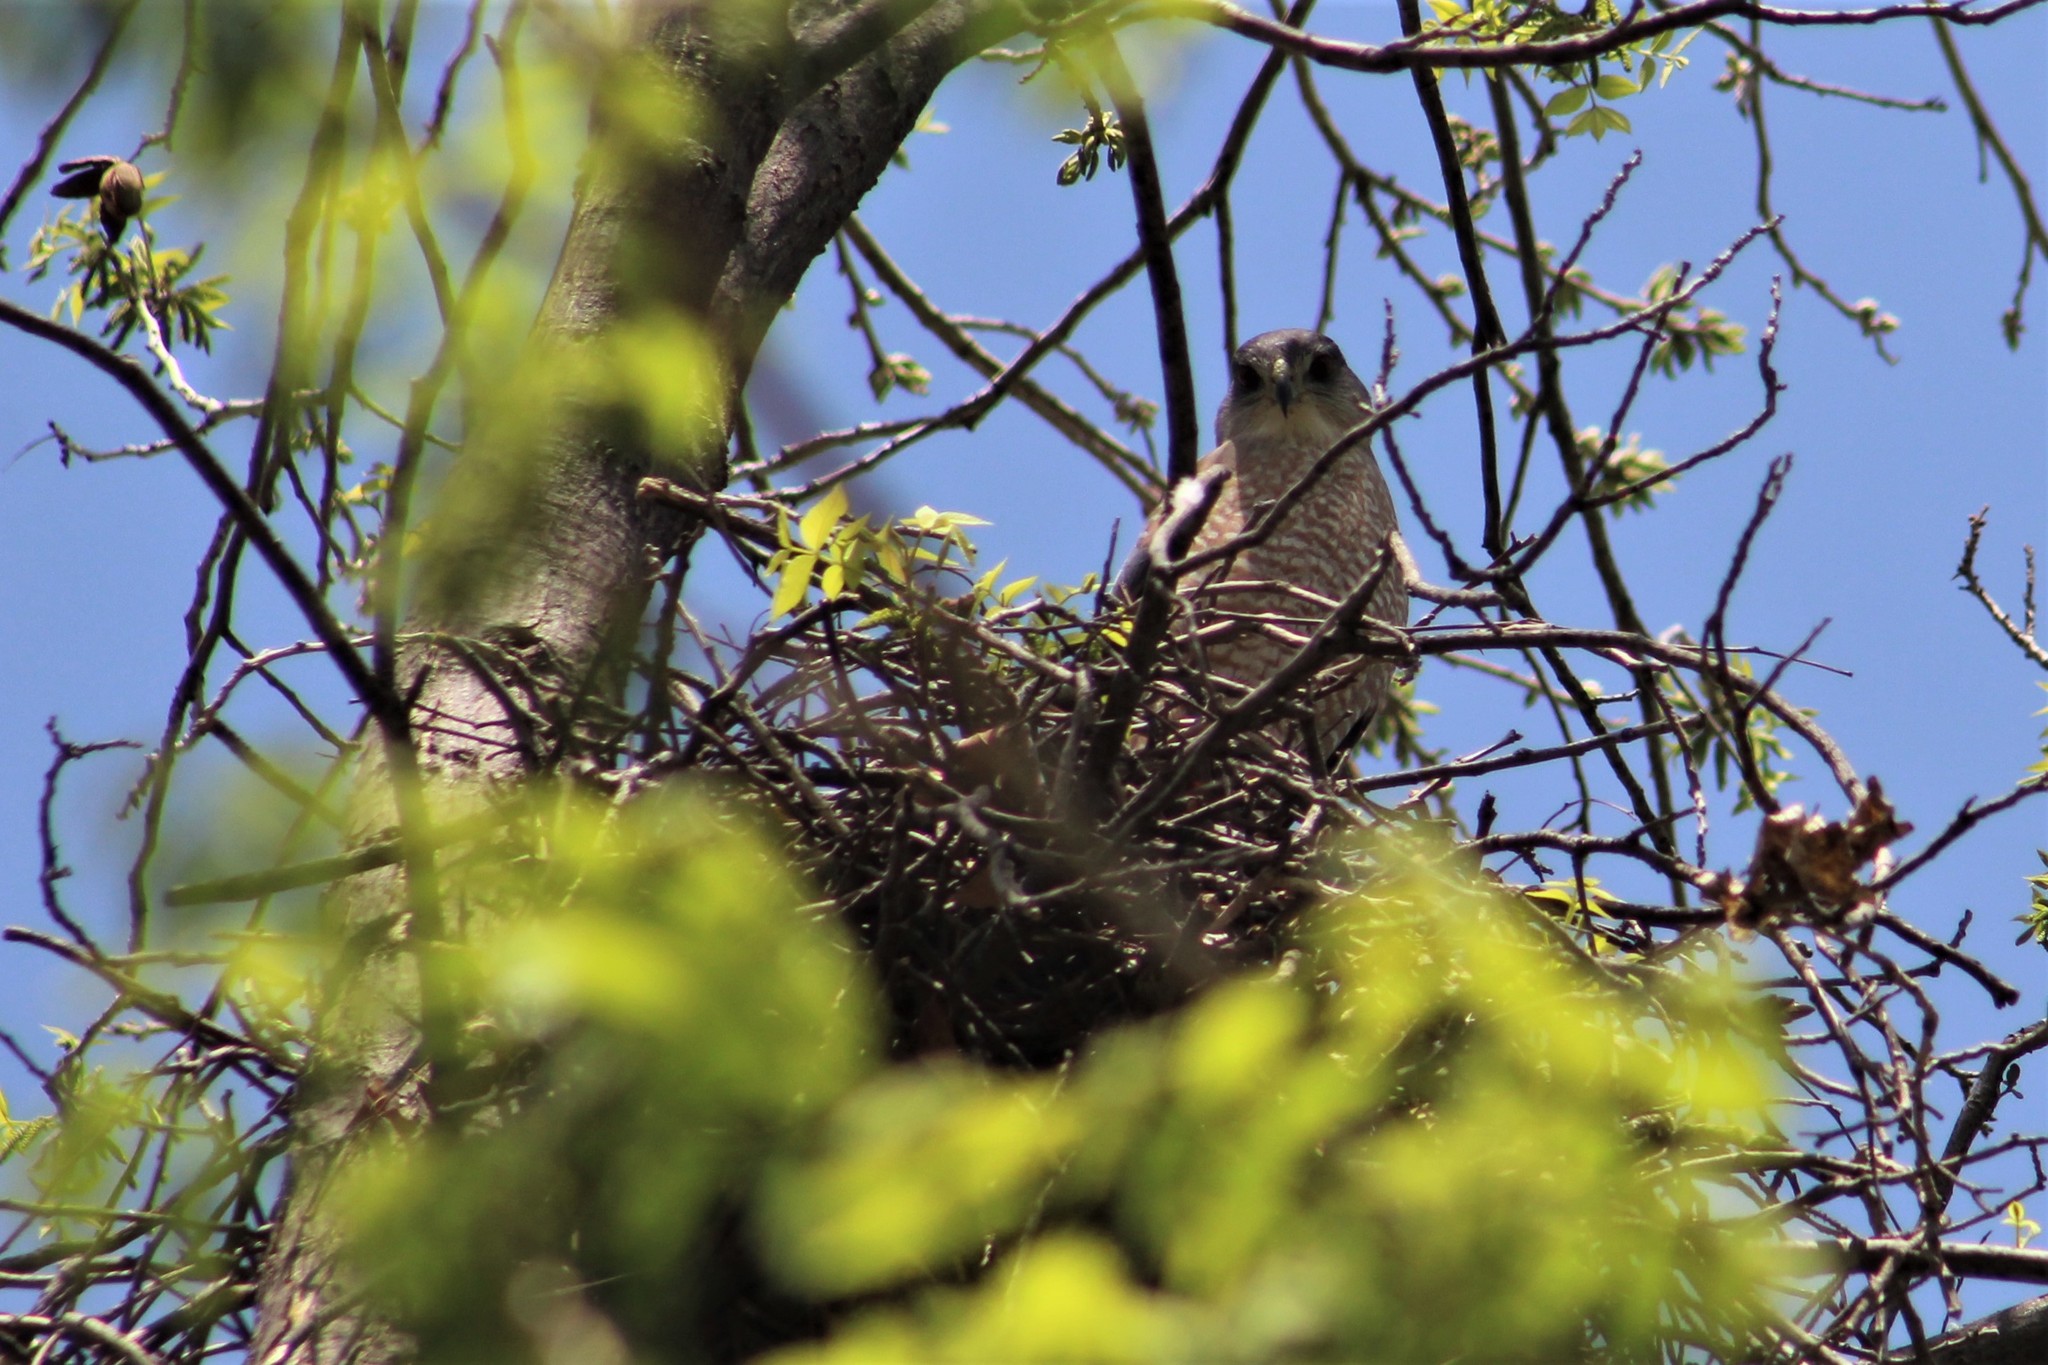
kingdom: Animalia
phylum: Chordata
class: Aves
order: Accipitriformes
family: Accipitridae
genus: Accipiter
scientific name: Accipiter cooperii
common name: Cooper's hawk
